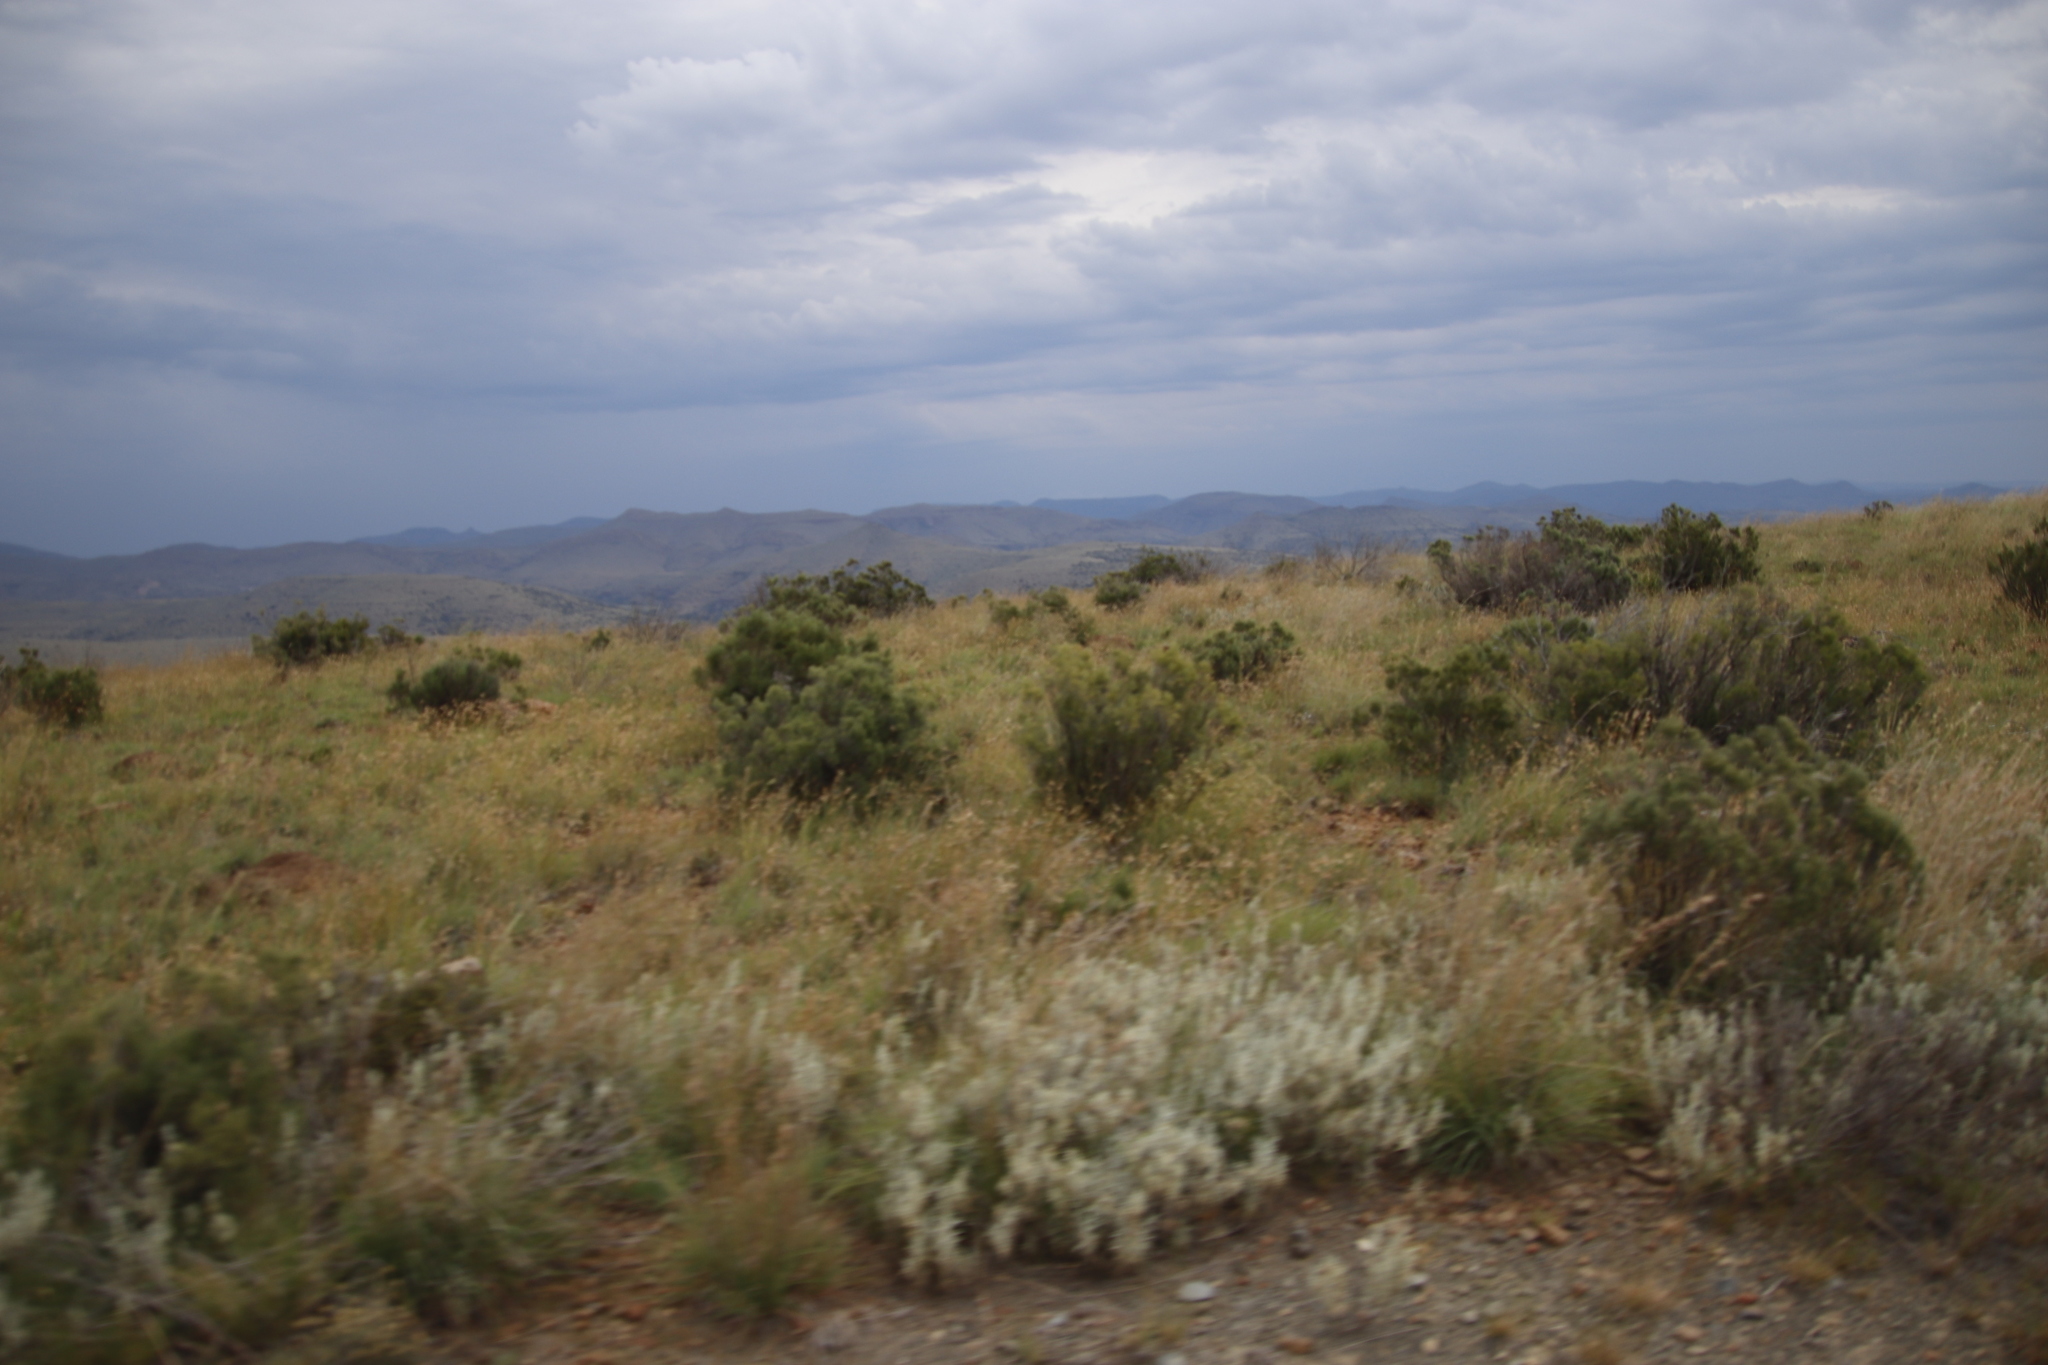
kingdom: Plantae
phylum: Tracheophyta
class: Magnoliopsida
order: Asterales
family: Asteraceae
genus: Dicerothamnus
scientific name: Dicerothamnus rhinocerotis
